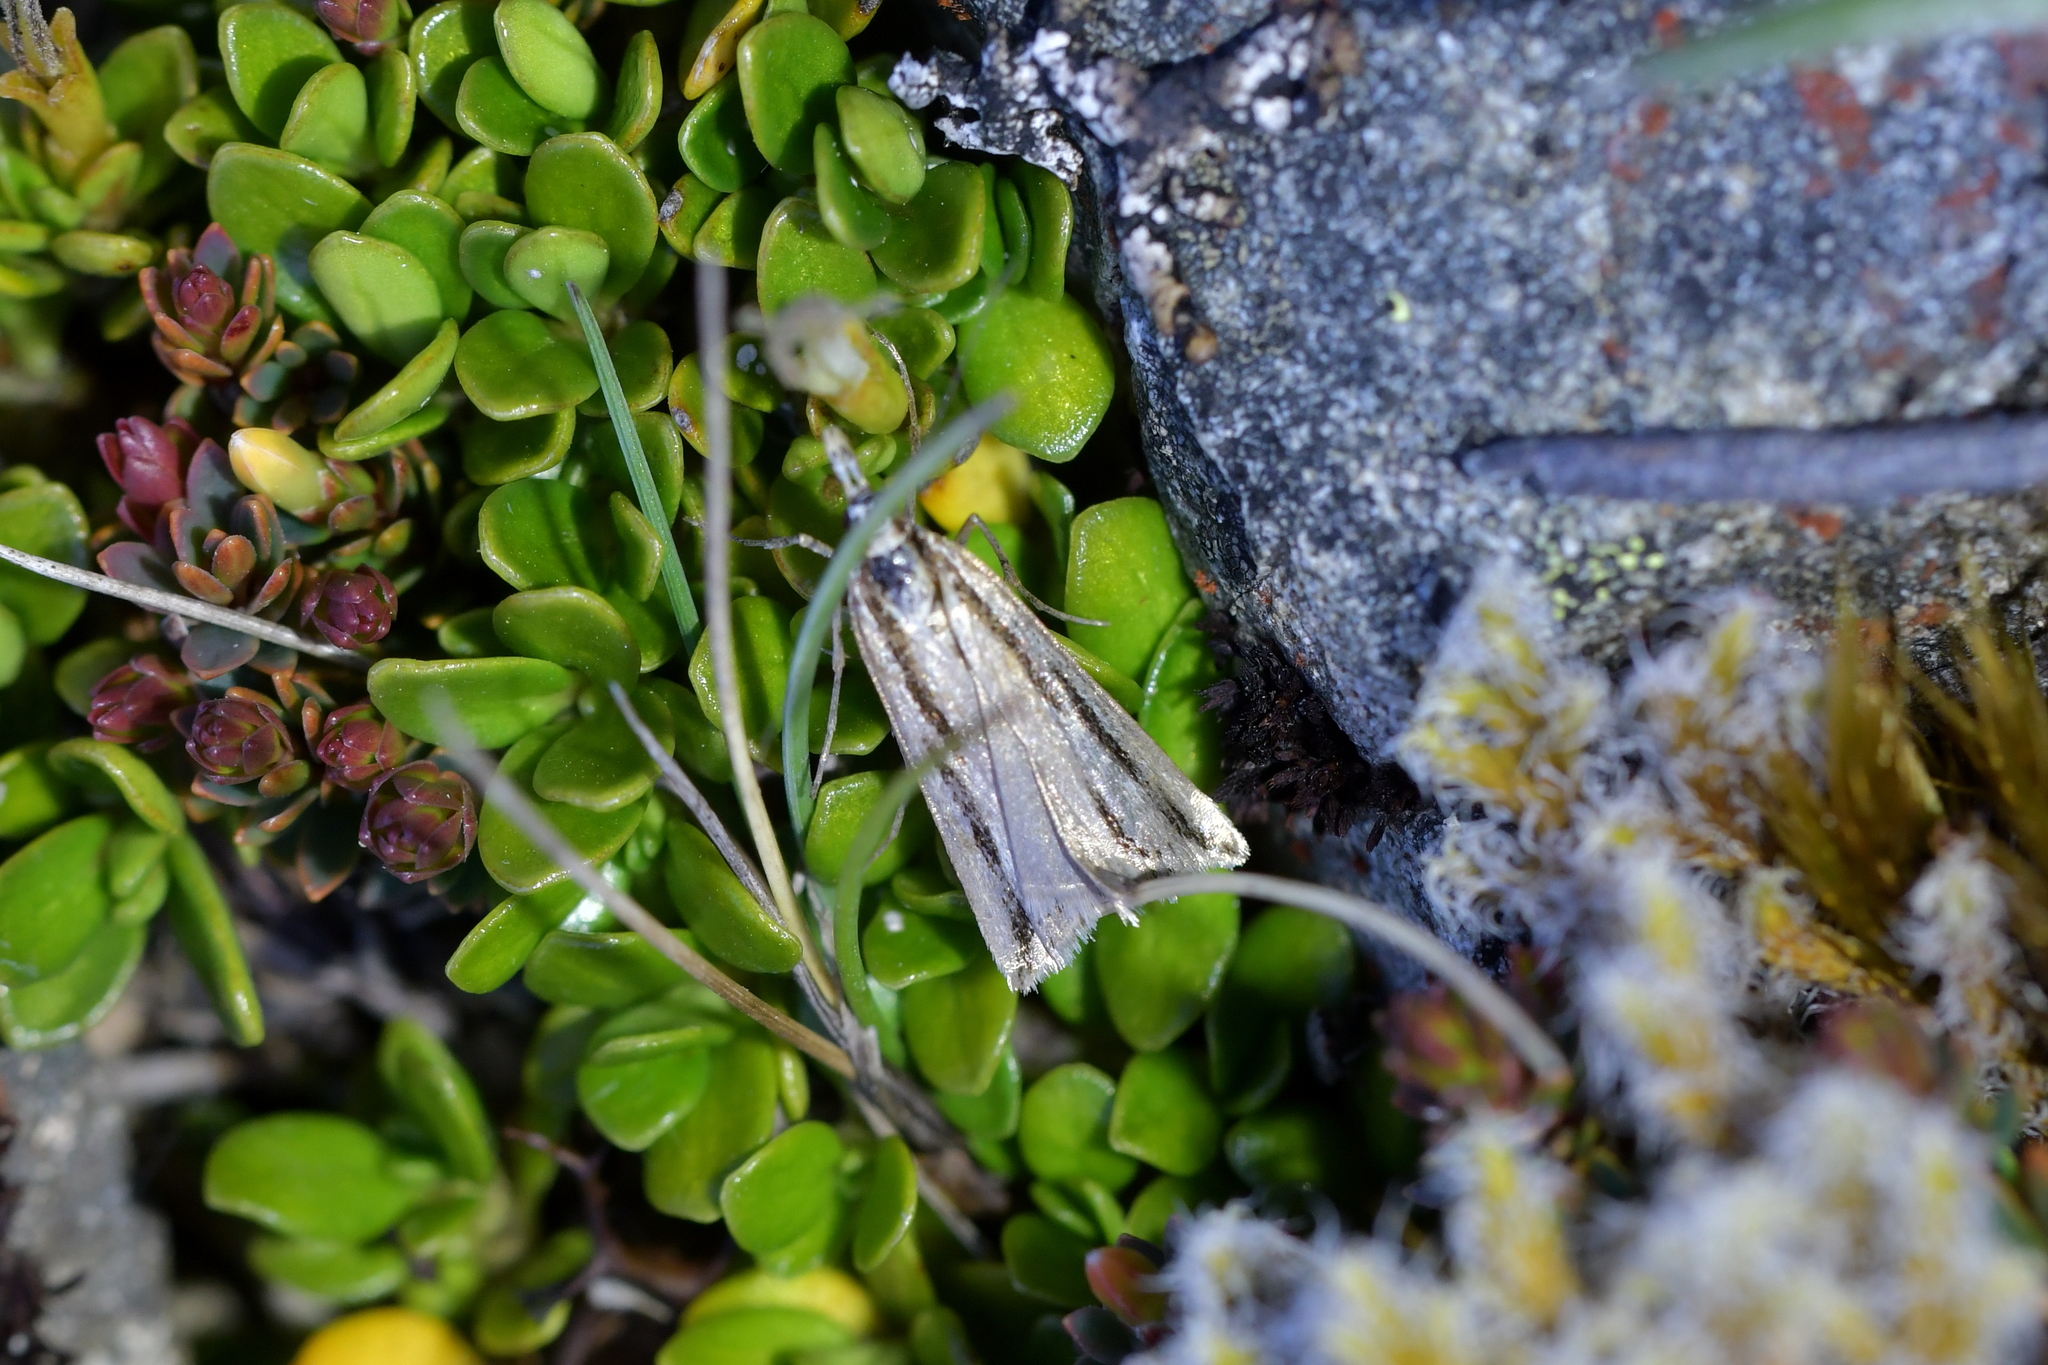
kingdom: Animalia
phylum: Arthropoda
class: Insecta
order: Lepidoptera
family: Crambidae
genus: Eudonia
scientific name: Eudonia trivirgata
